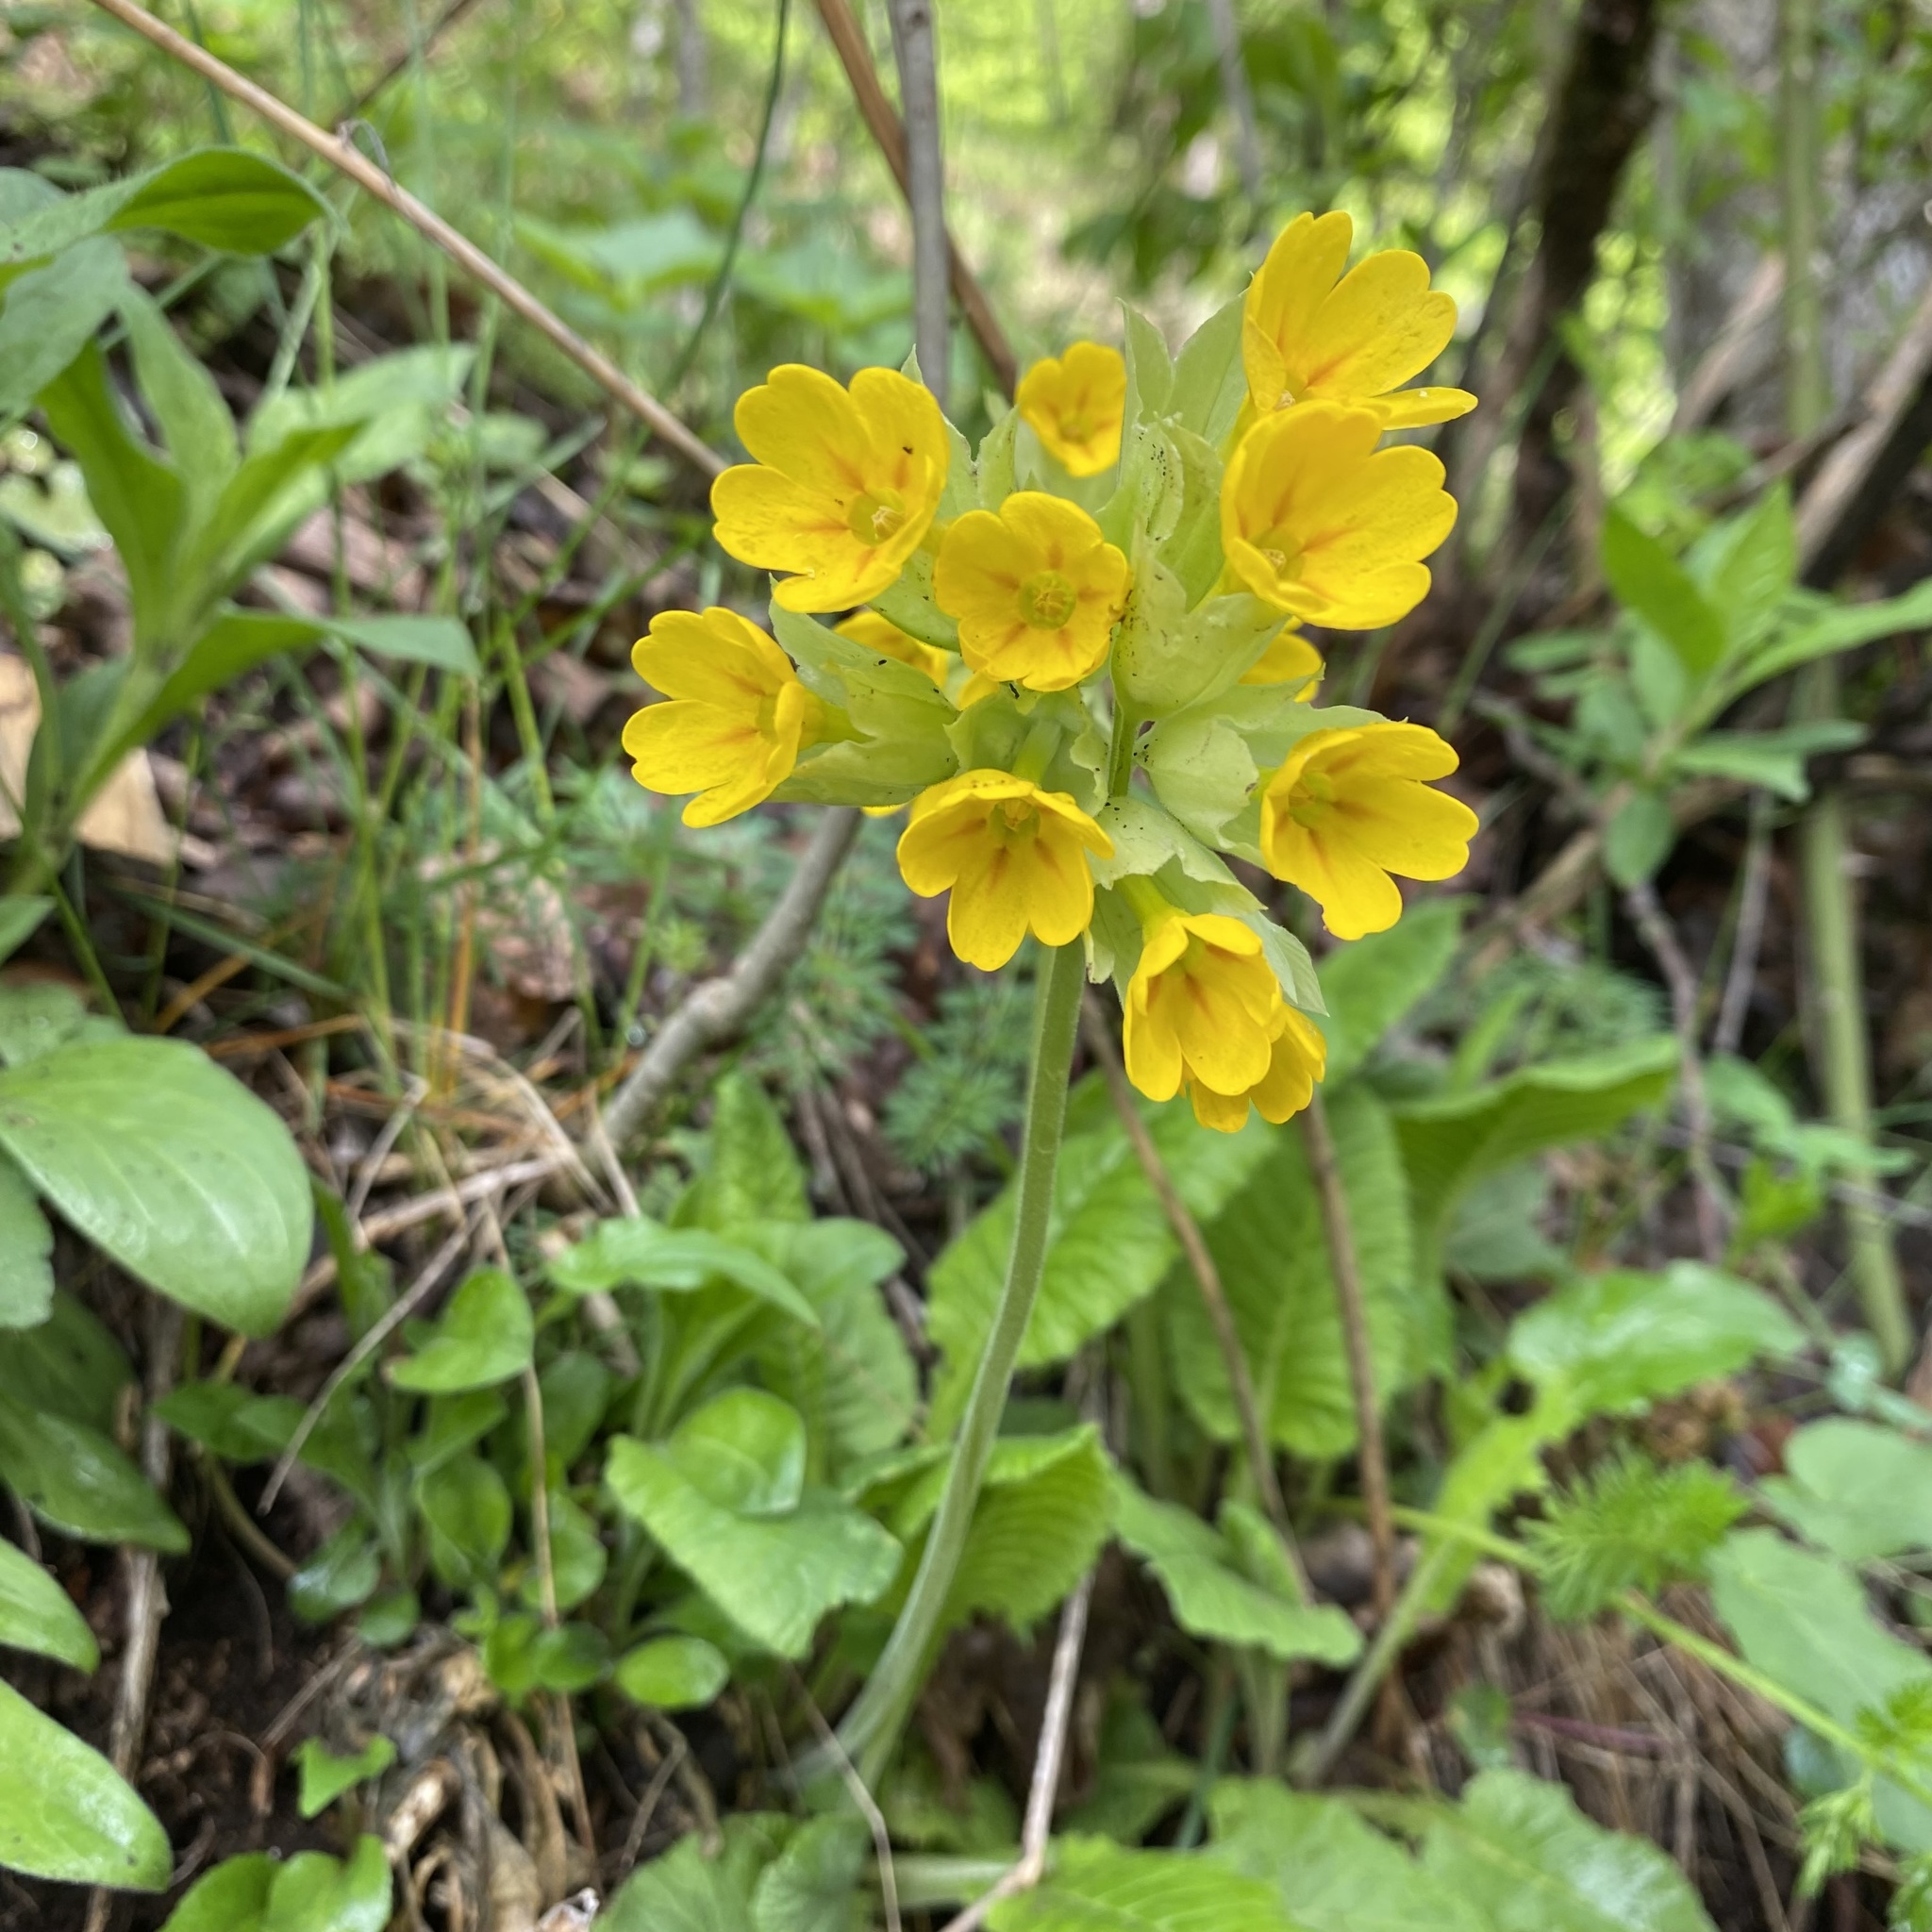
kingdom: Plantae
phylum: Tracheophyta
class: Magnoliopsida
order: Ericales
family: Primulaceae
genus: Primula
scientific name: Primula veris
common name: Cowslip
